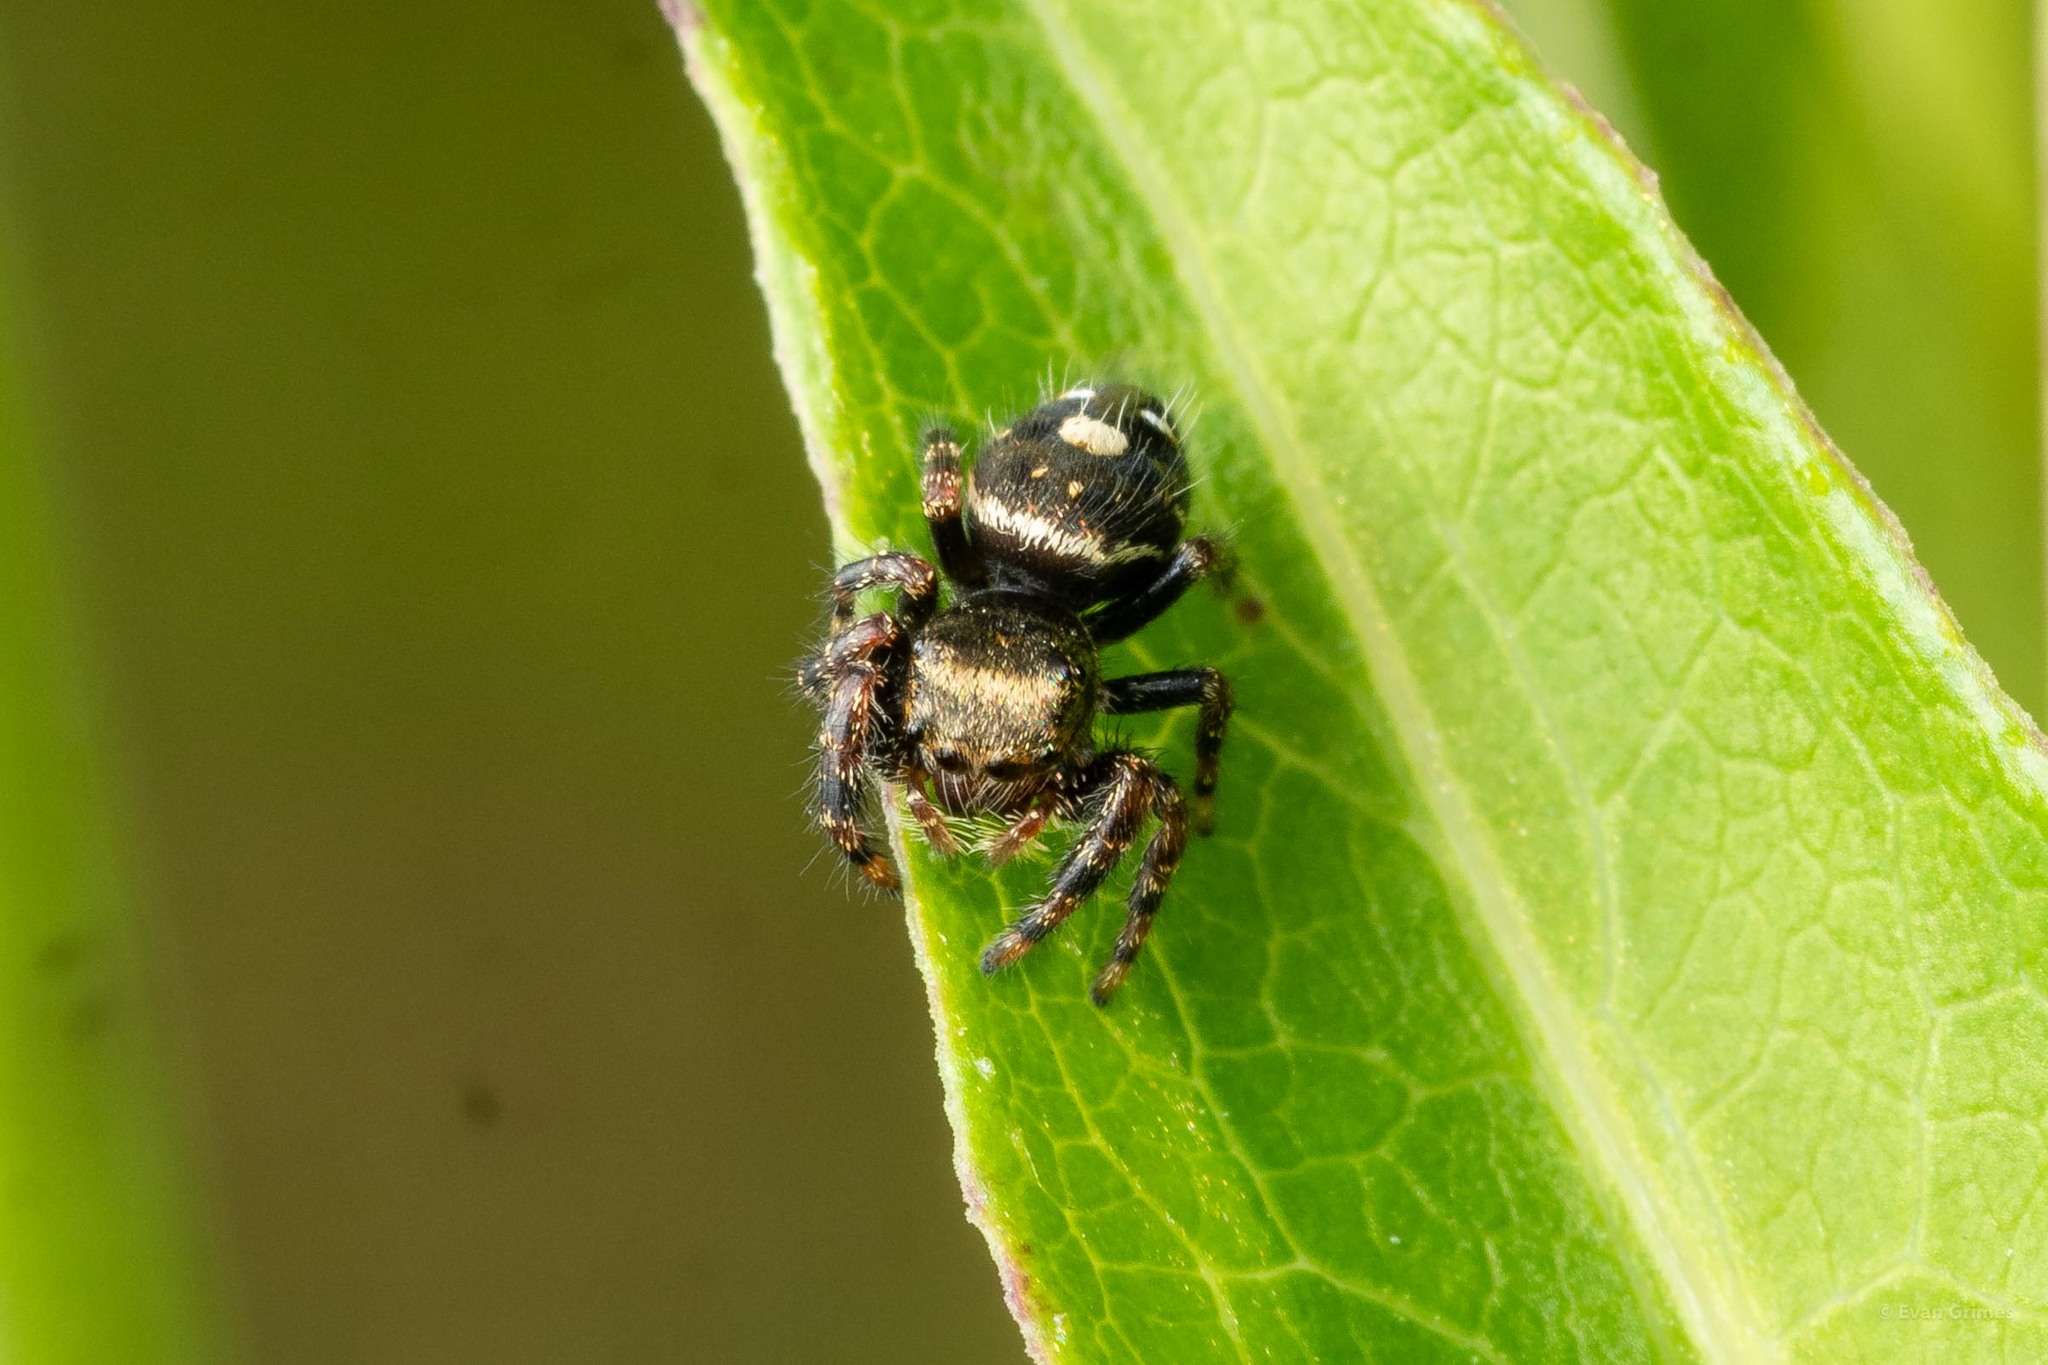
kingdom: Animalia
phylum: Arthropoda
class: Arachnida
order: Araneae
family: Salticidae
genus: Phidippus
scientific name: Phidippus audax
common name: Bold jumper
